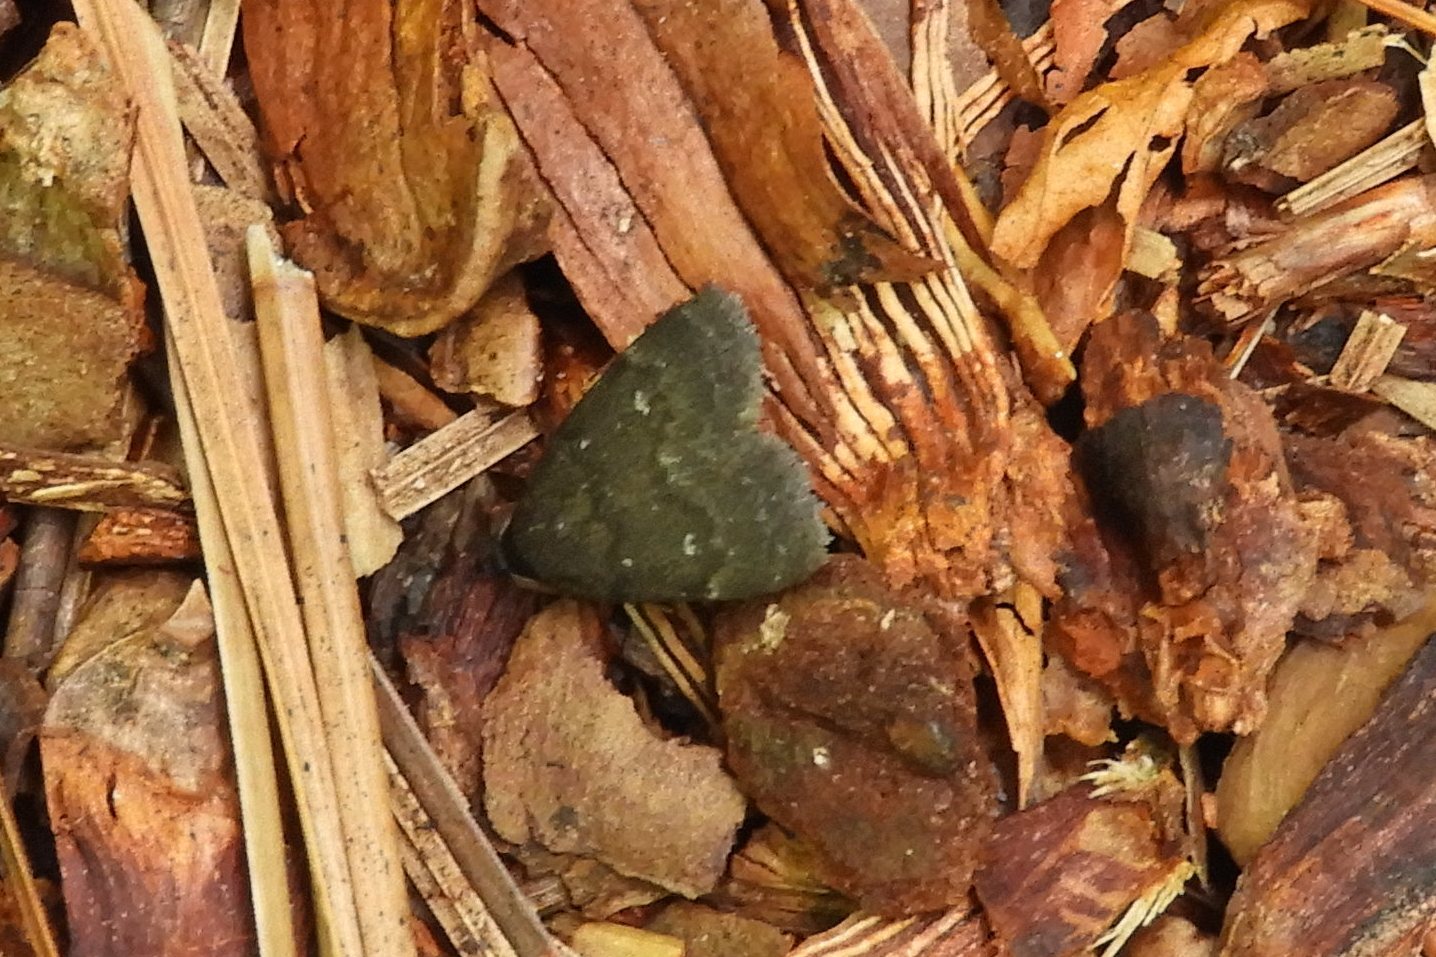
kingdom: Animalia
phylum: Arthropoda
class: Insecta
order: Lepidoptera
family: Erebidae
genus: Idia
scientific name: Idia rotundalis
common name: Rotund idia moth
